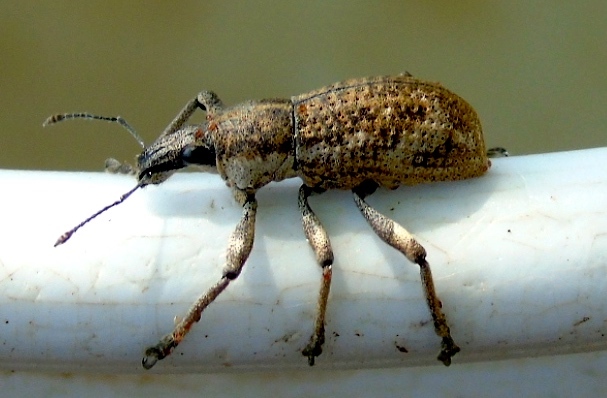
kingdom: Animalia
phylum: Arthropoda
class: Insecta
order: Coleoptera
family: Curculionidae
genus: Epicaerus
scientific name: Epicaerus
